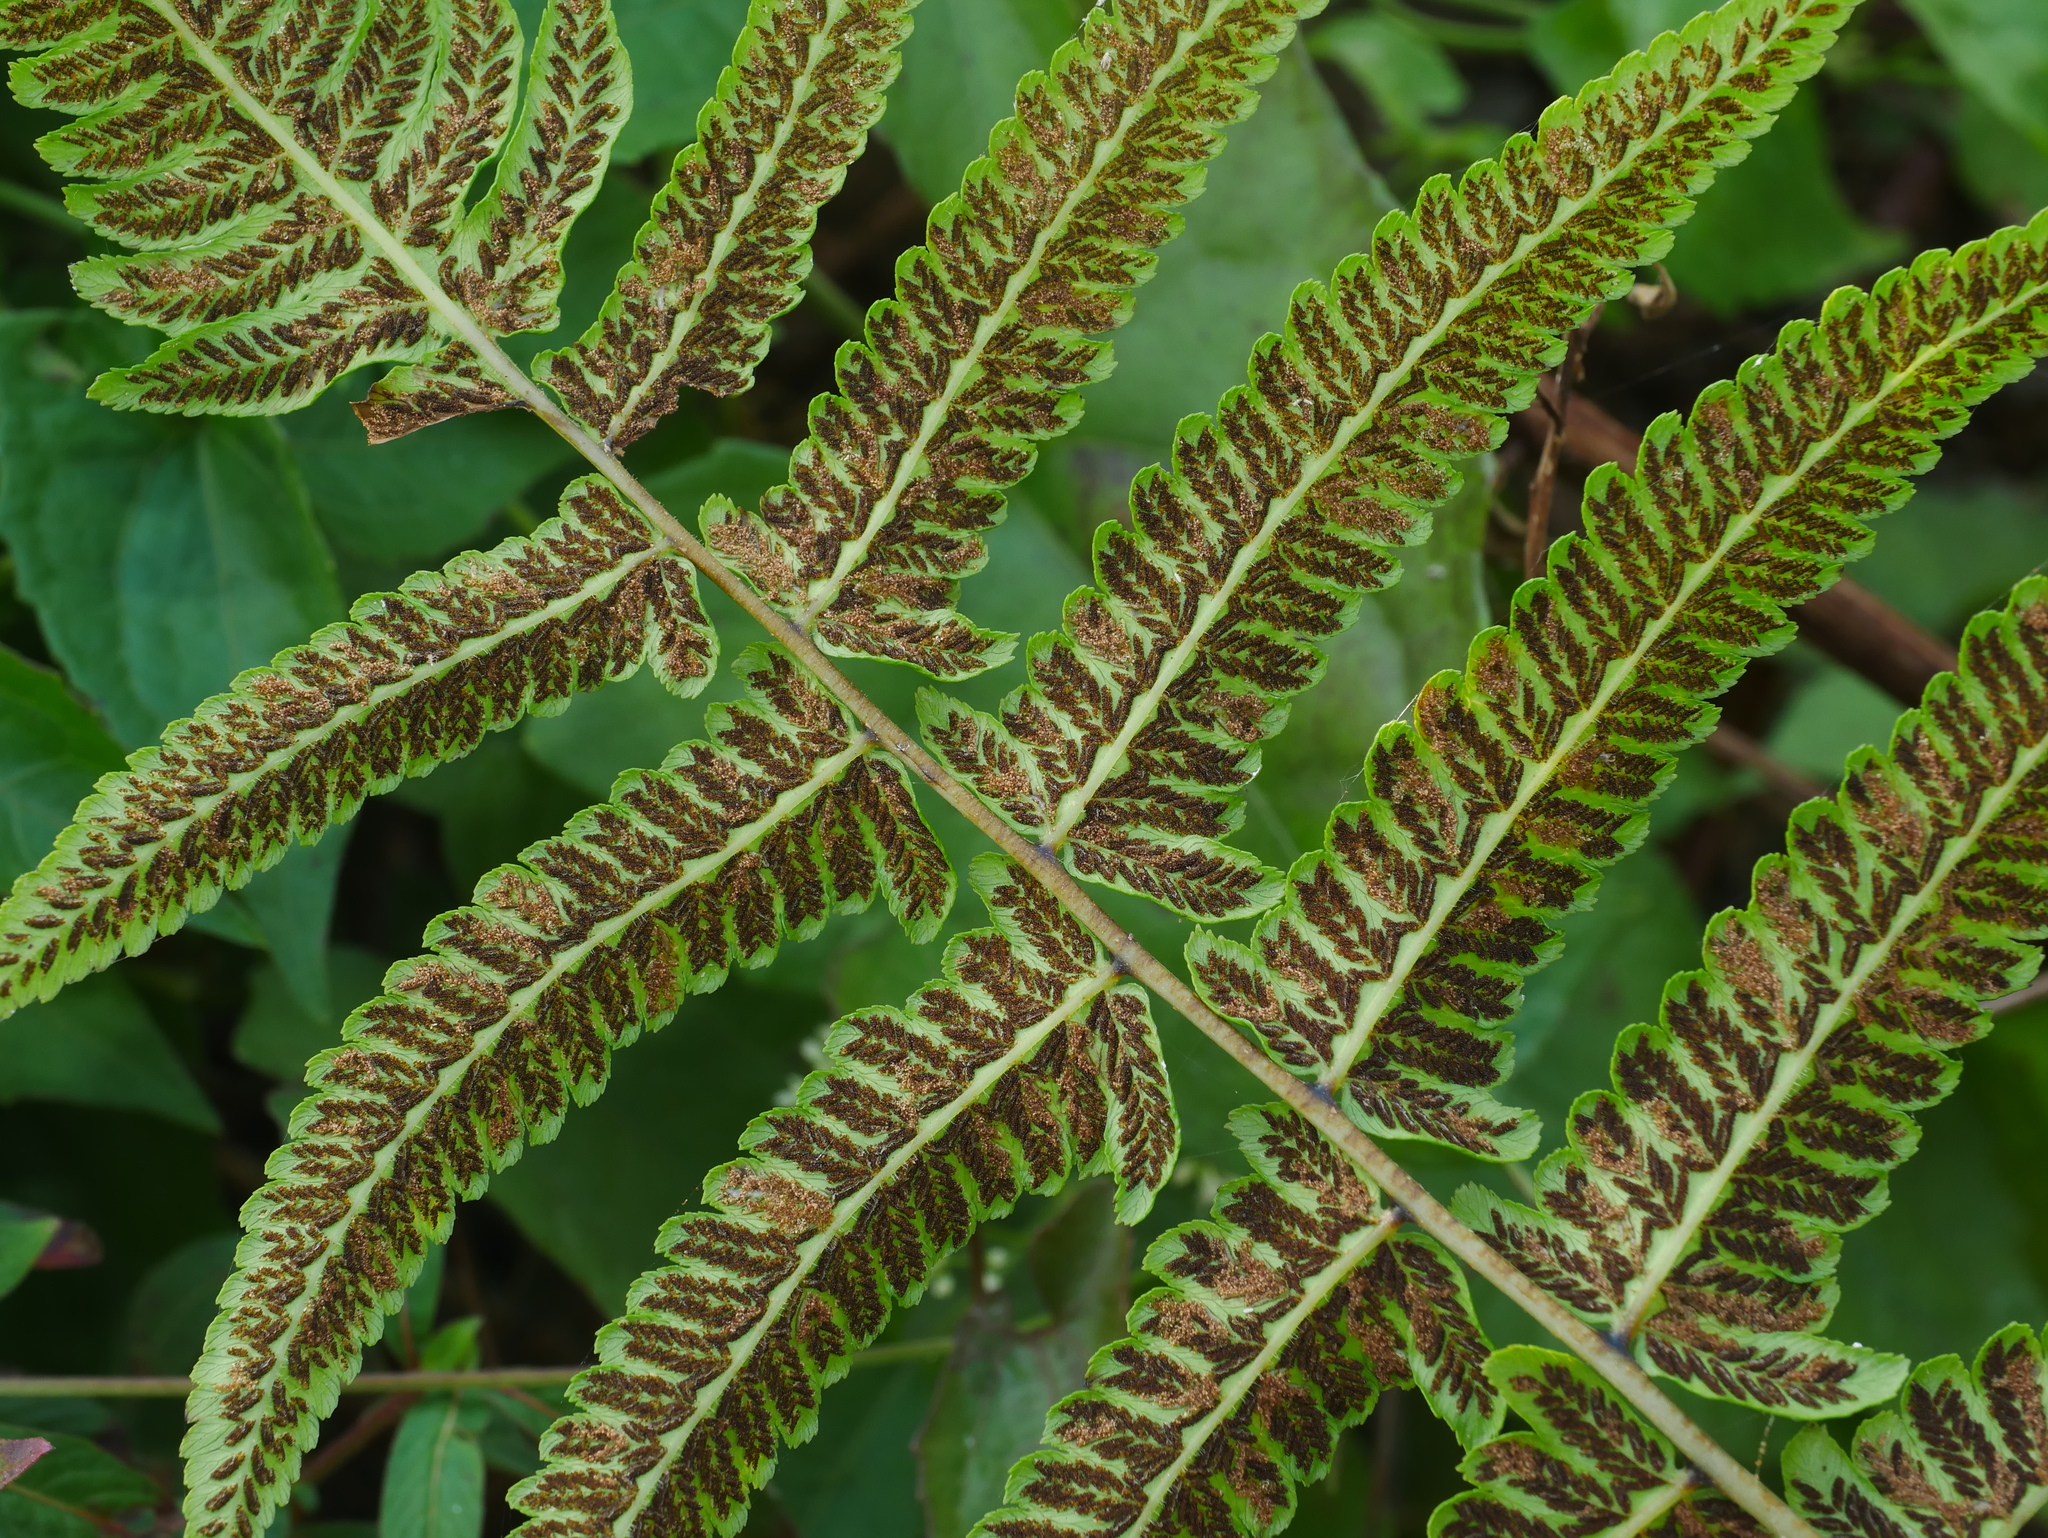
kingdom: Plantae
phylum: Tracheophyta
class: Polypodiopsida
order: Polypodiales
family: Athyriaceae
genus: Diplazium
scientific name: Diplazium esculentum
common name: Vegetable fern
